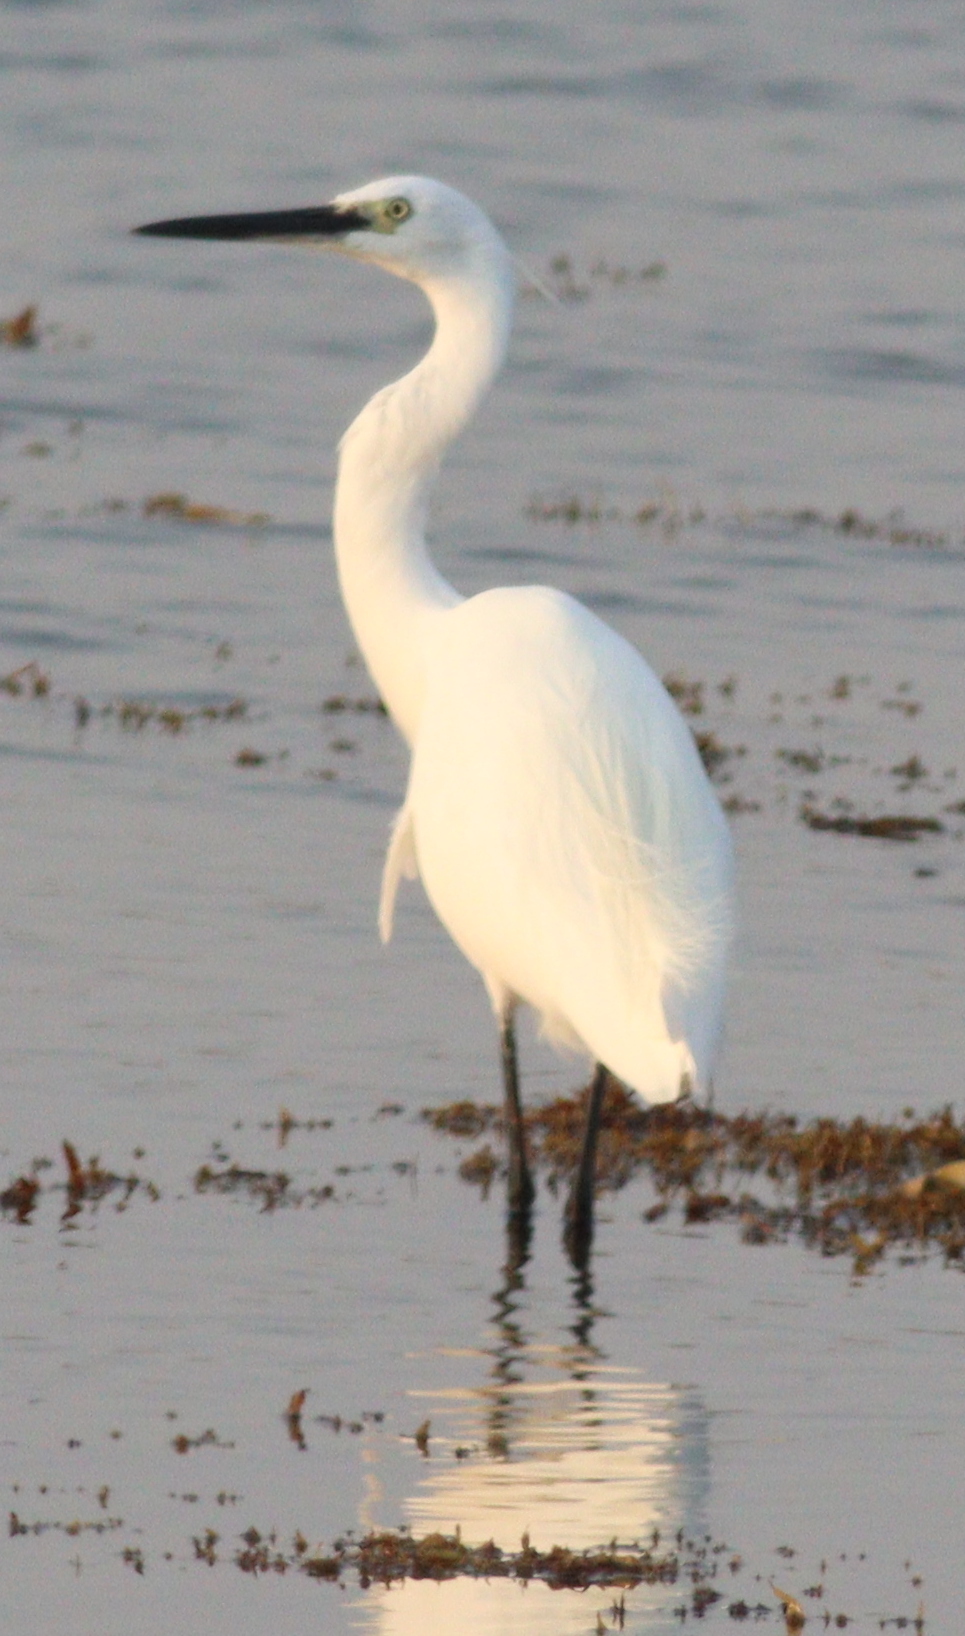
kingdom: Animalia
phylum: Chordata
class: Aves
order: Pelecaniformes
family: Ardeidae
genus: Egretta
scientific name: Egretta garzetta
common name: Little egret
